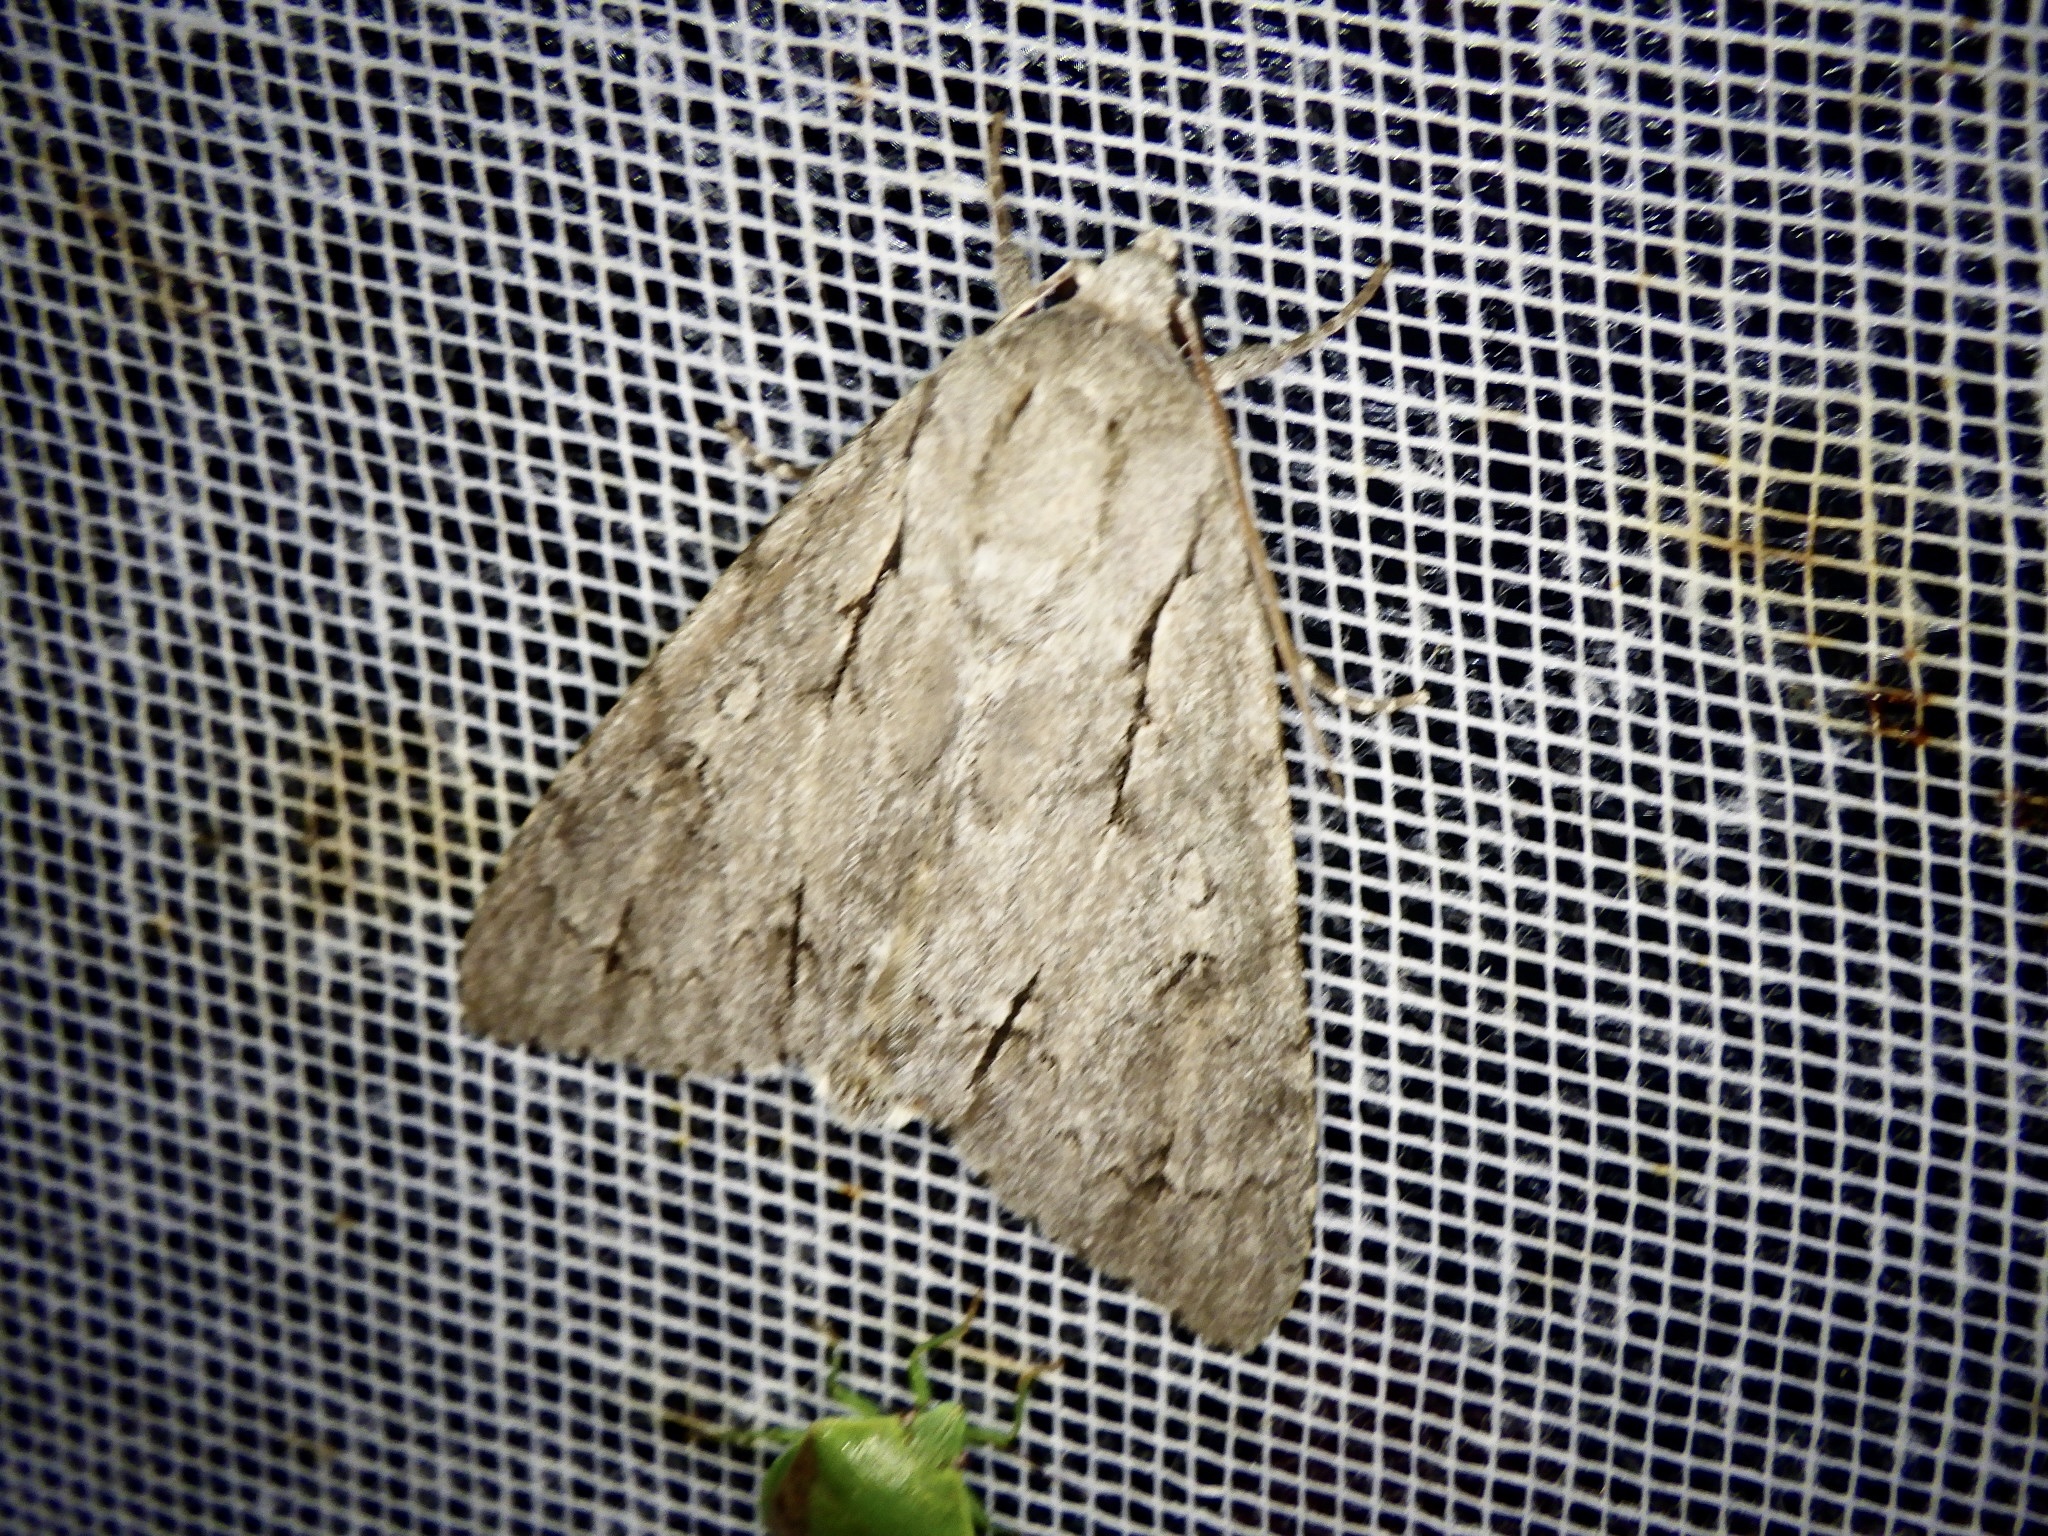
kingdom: Animalia
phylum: Arthropoda
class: Insecta
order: Lepidoptera
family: Noctuidae
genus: Acronicta
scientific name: Acronicta major
